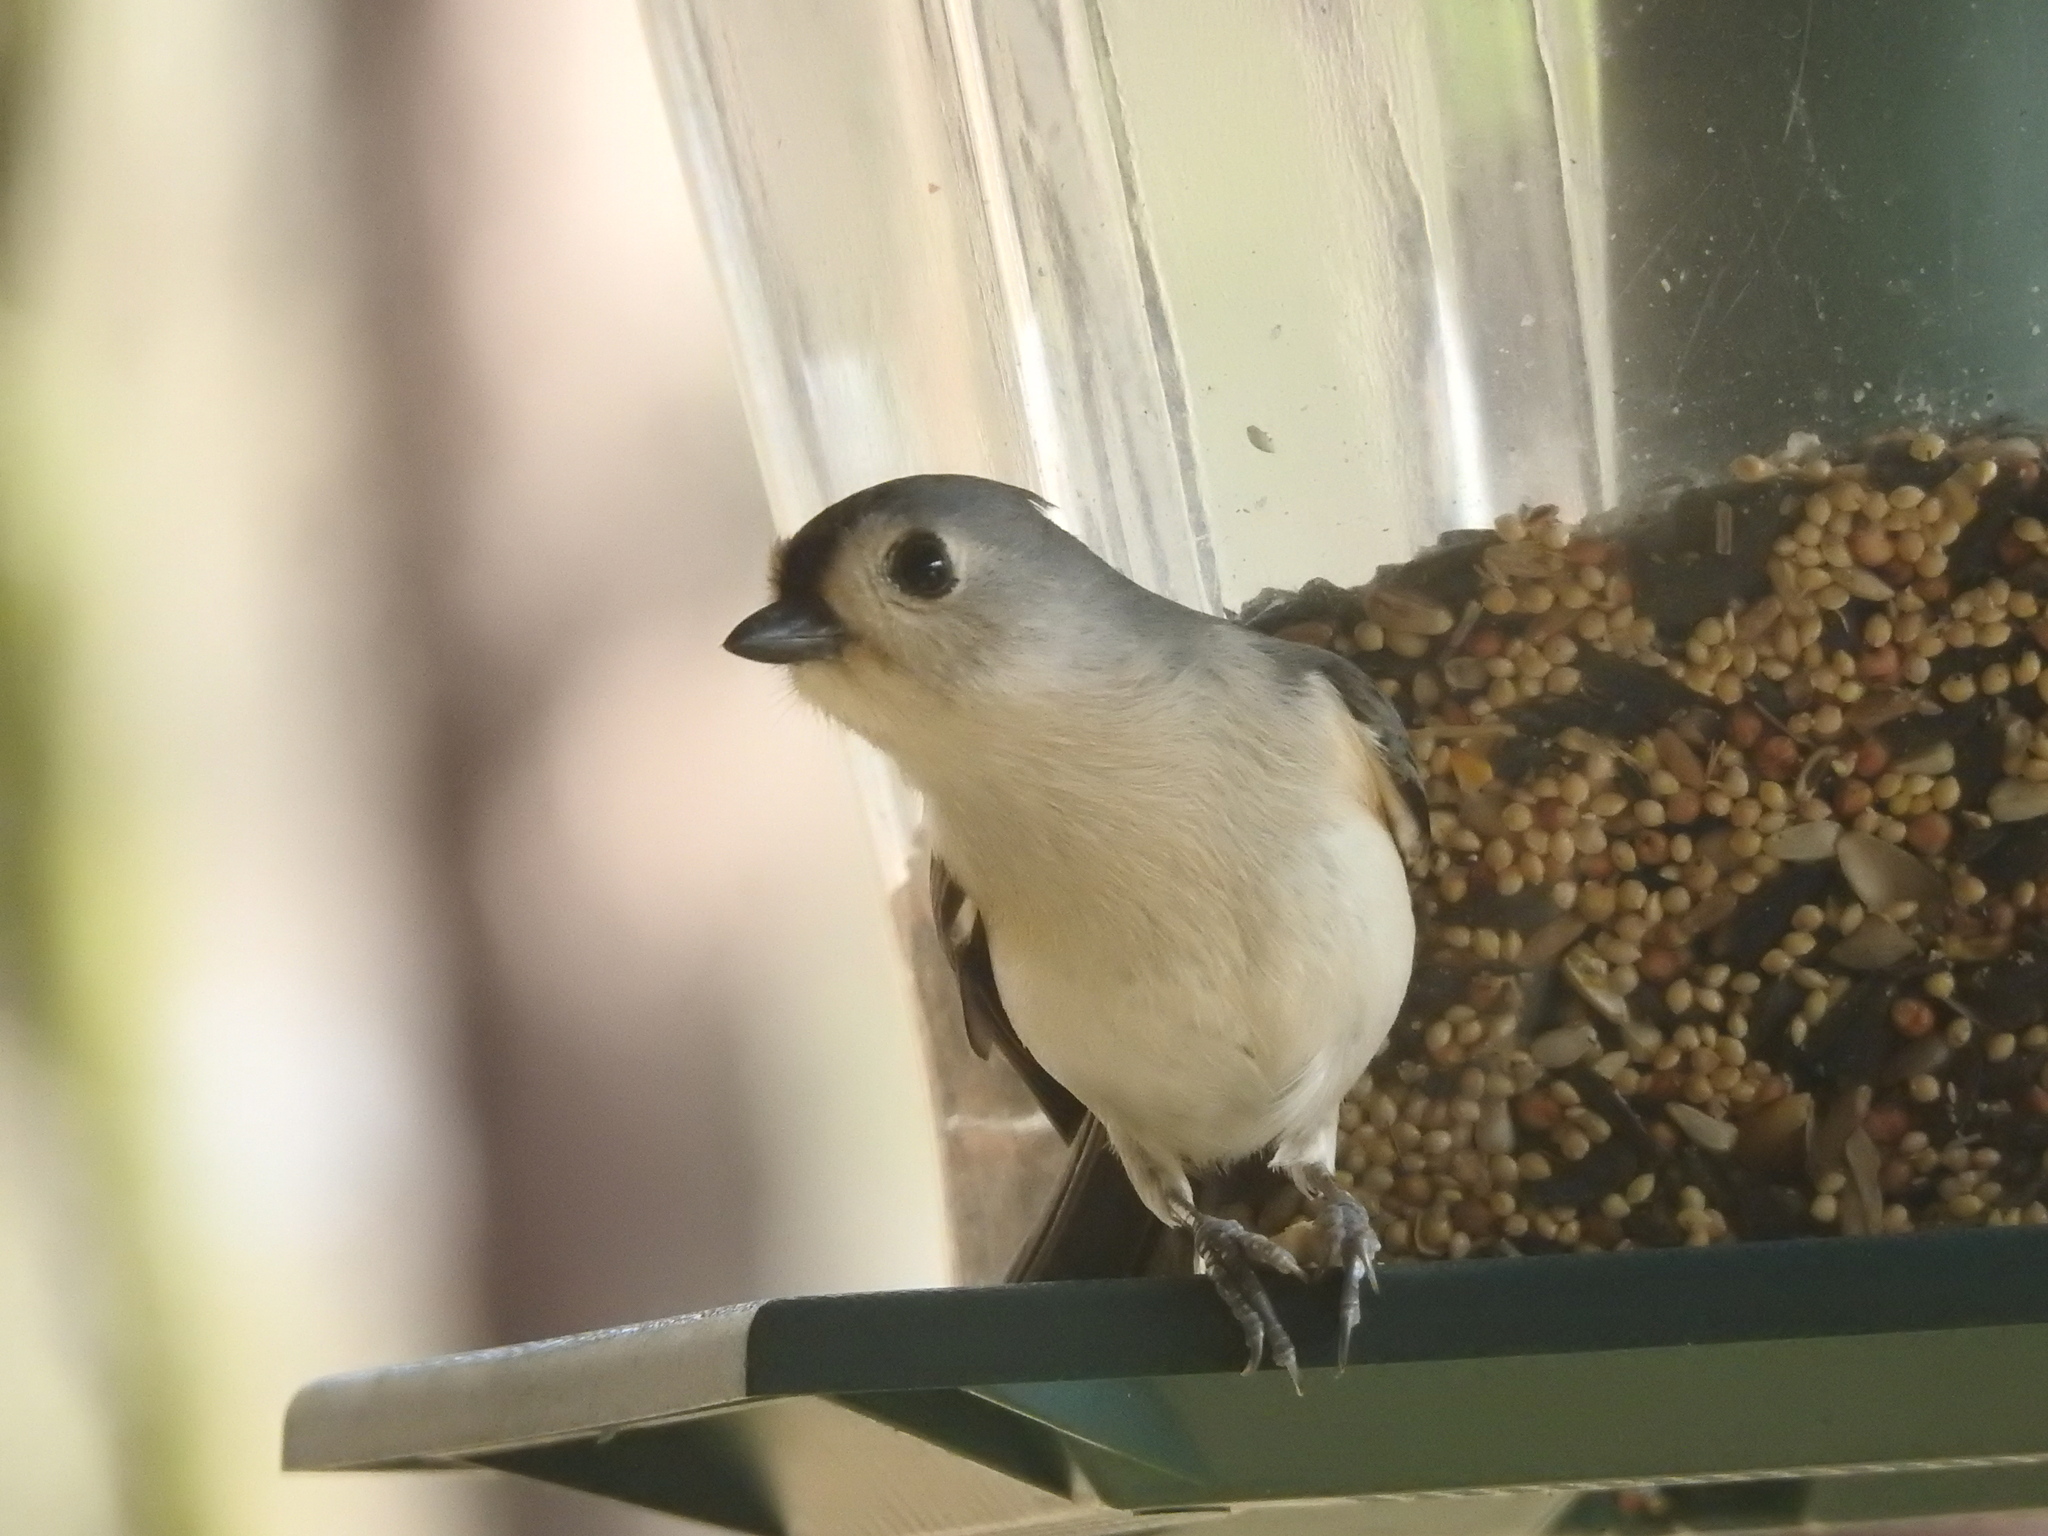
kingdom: Animalia
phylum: Chordata
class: Aves
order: Passeriformes
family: Paridae
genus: Baeolophus
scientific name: Baeolophus bicolor
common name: Tufted titmouse
